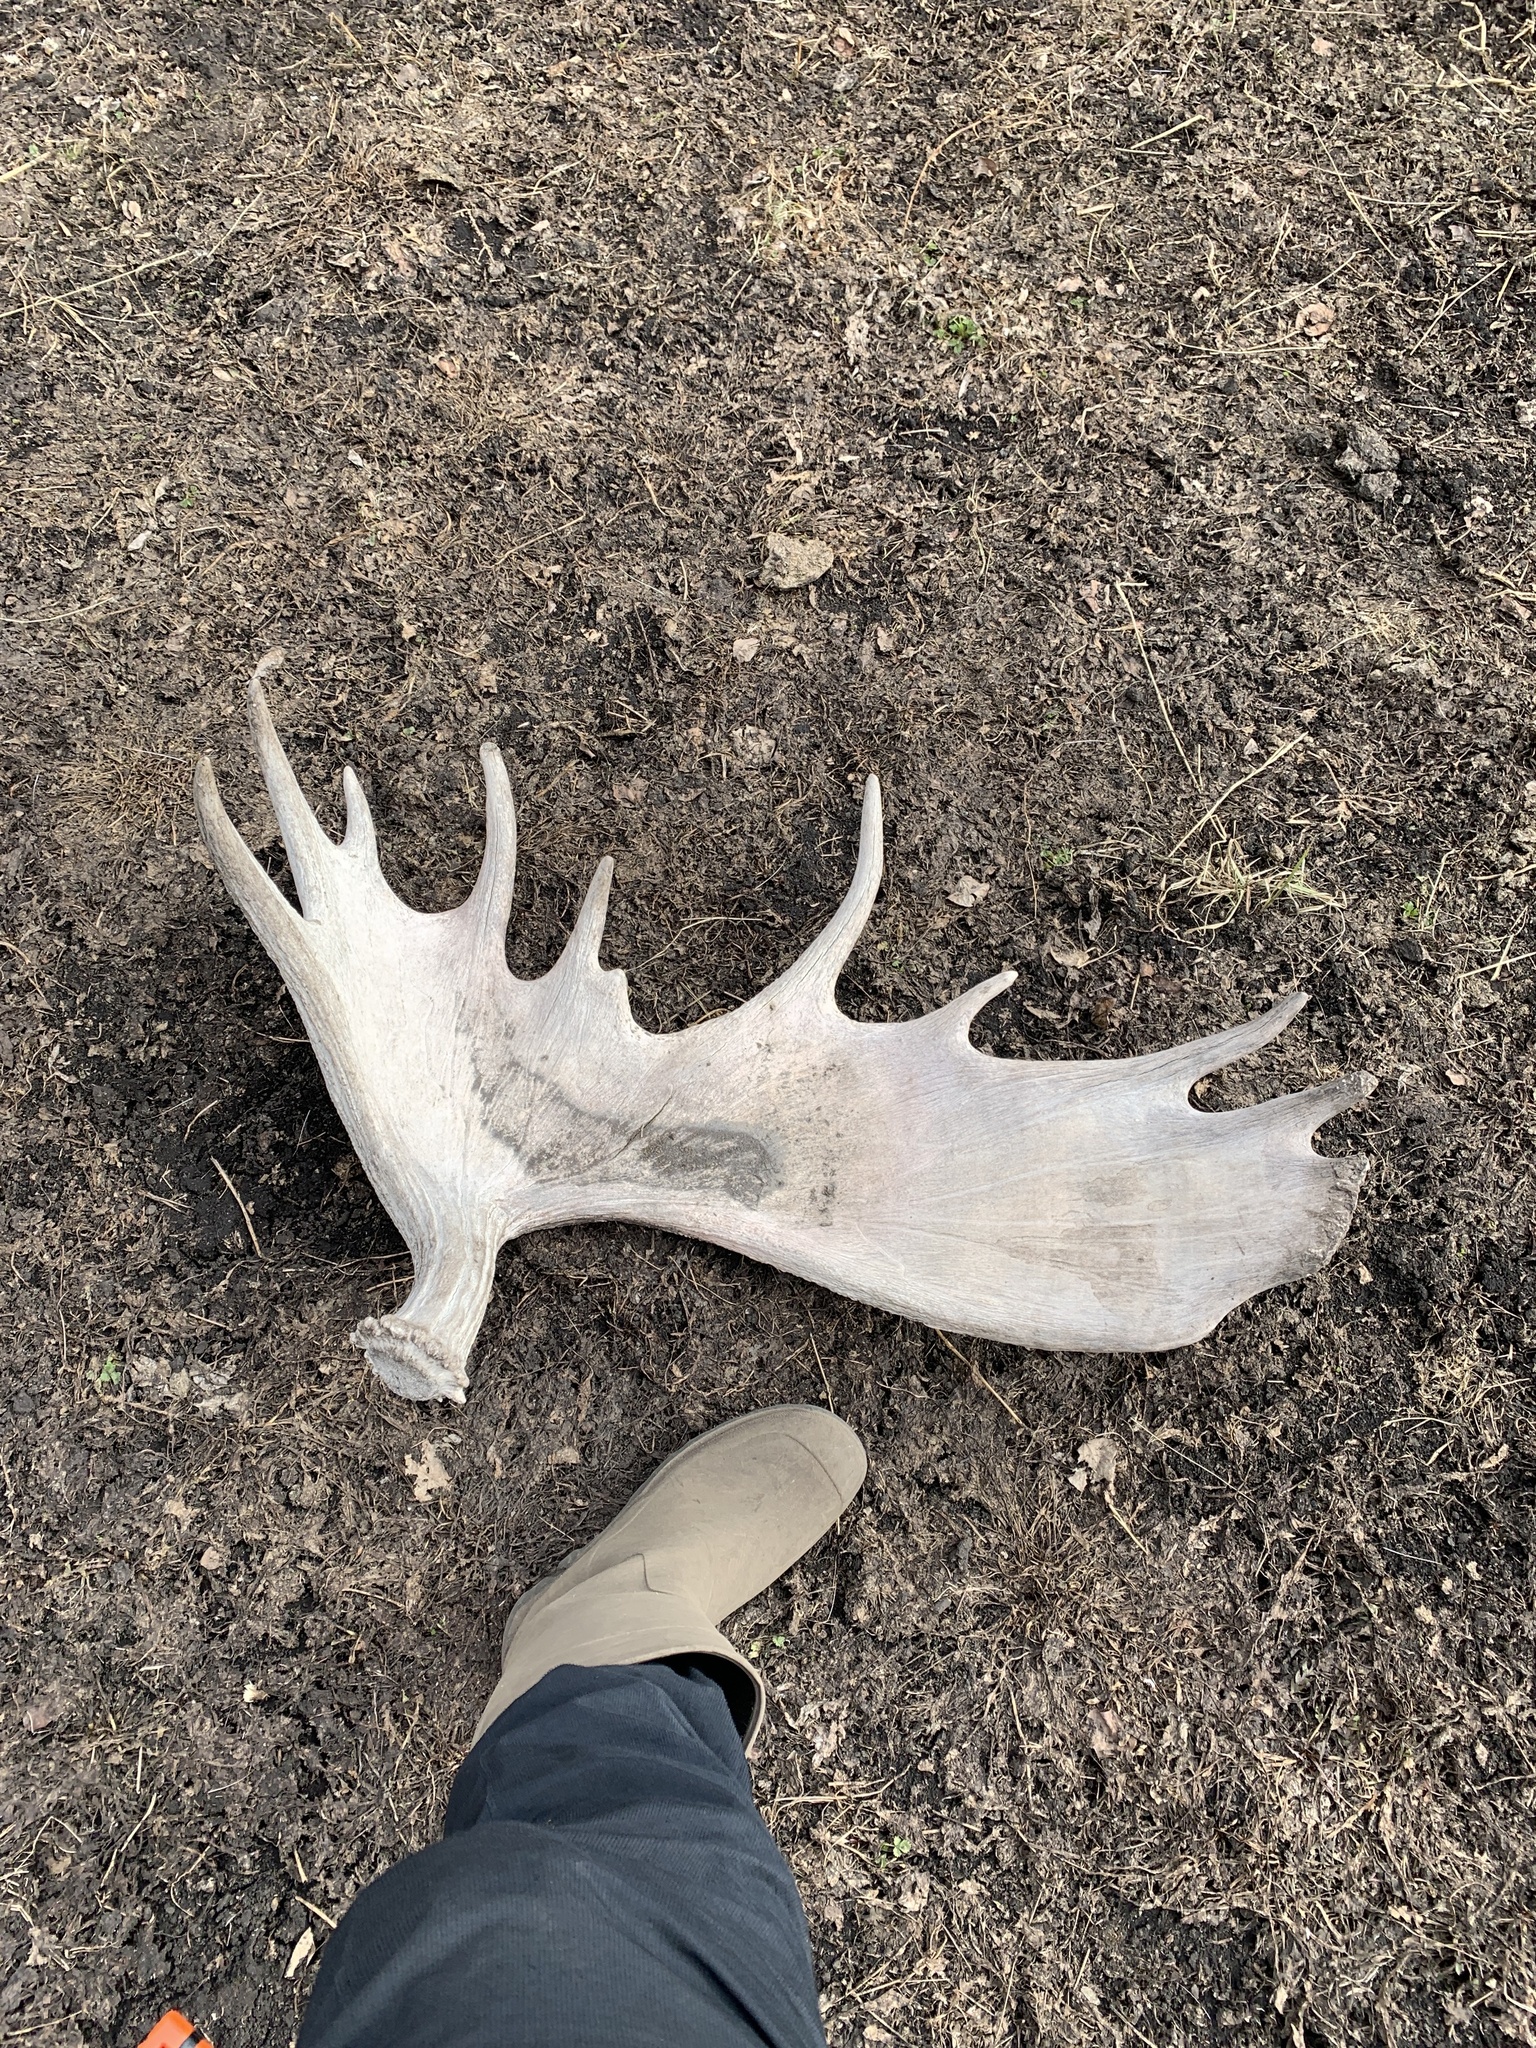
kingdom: Animalia
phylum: Chordata
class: Mammalia
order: Artiodactyla
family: Cervidae
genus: Alces
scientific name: Alces alces
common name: Moose
